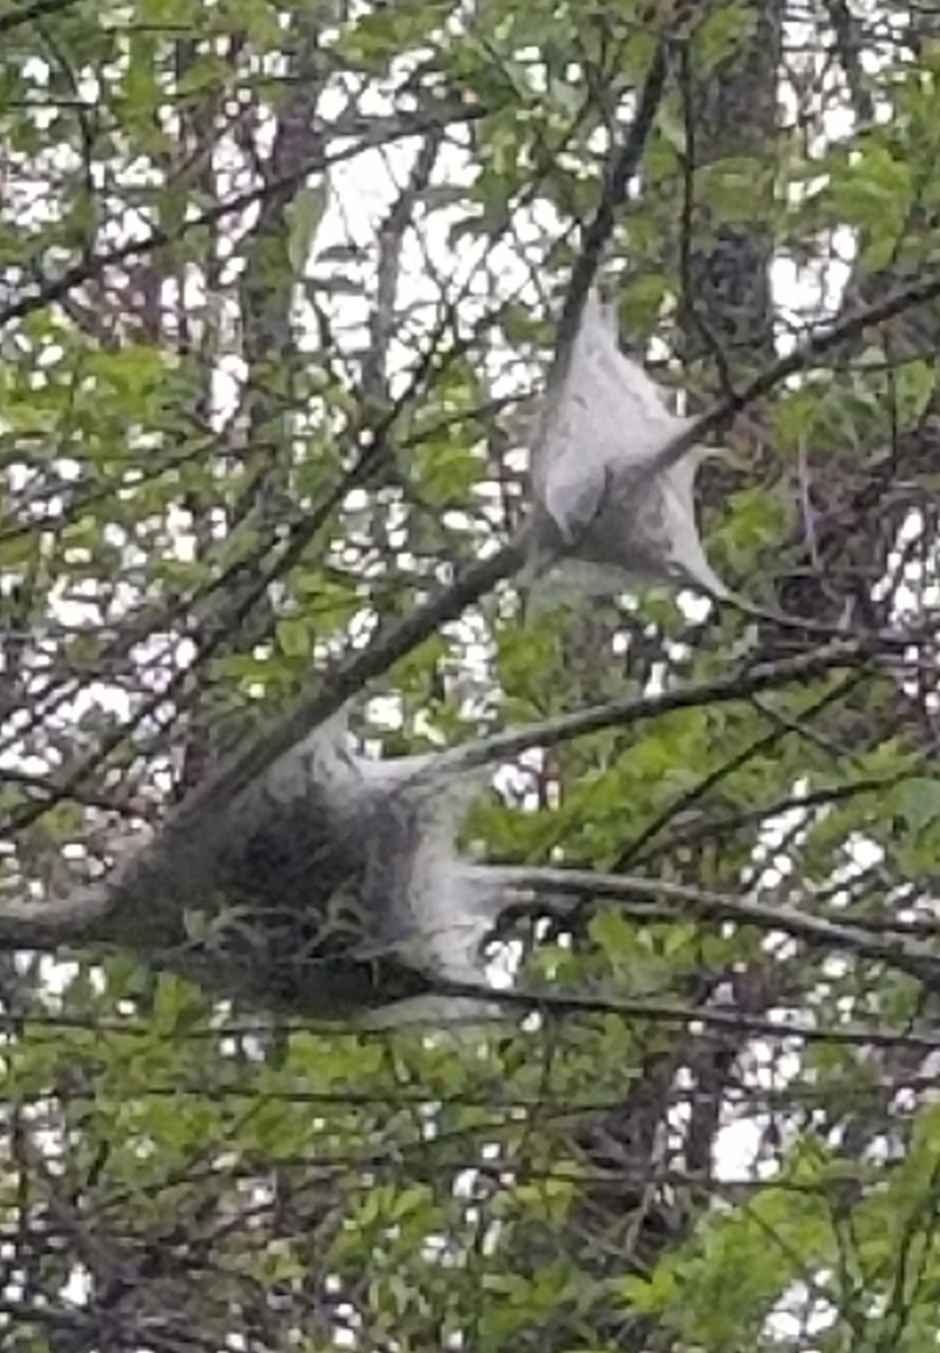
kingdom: Animalia
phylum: Arthropoda
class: Insecta
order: Lepidoptera
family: Lasiocampidae
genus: Malacosoma
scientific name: Malacosoma americana
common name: Eastern tent caterpillar moth
